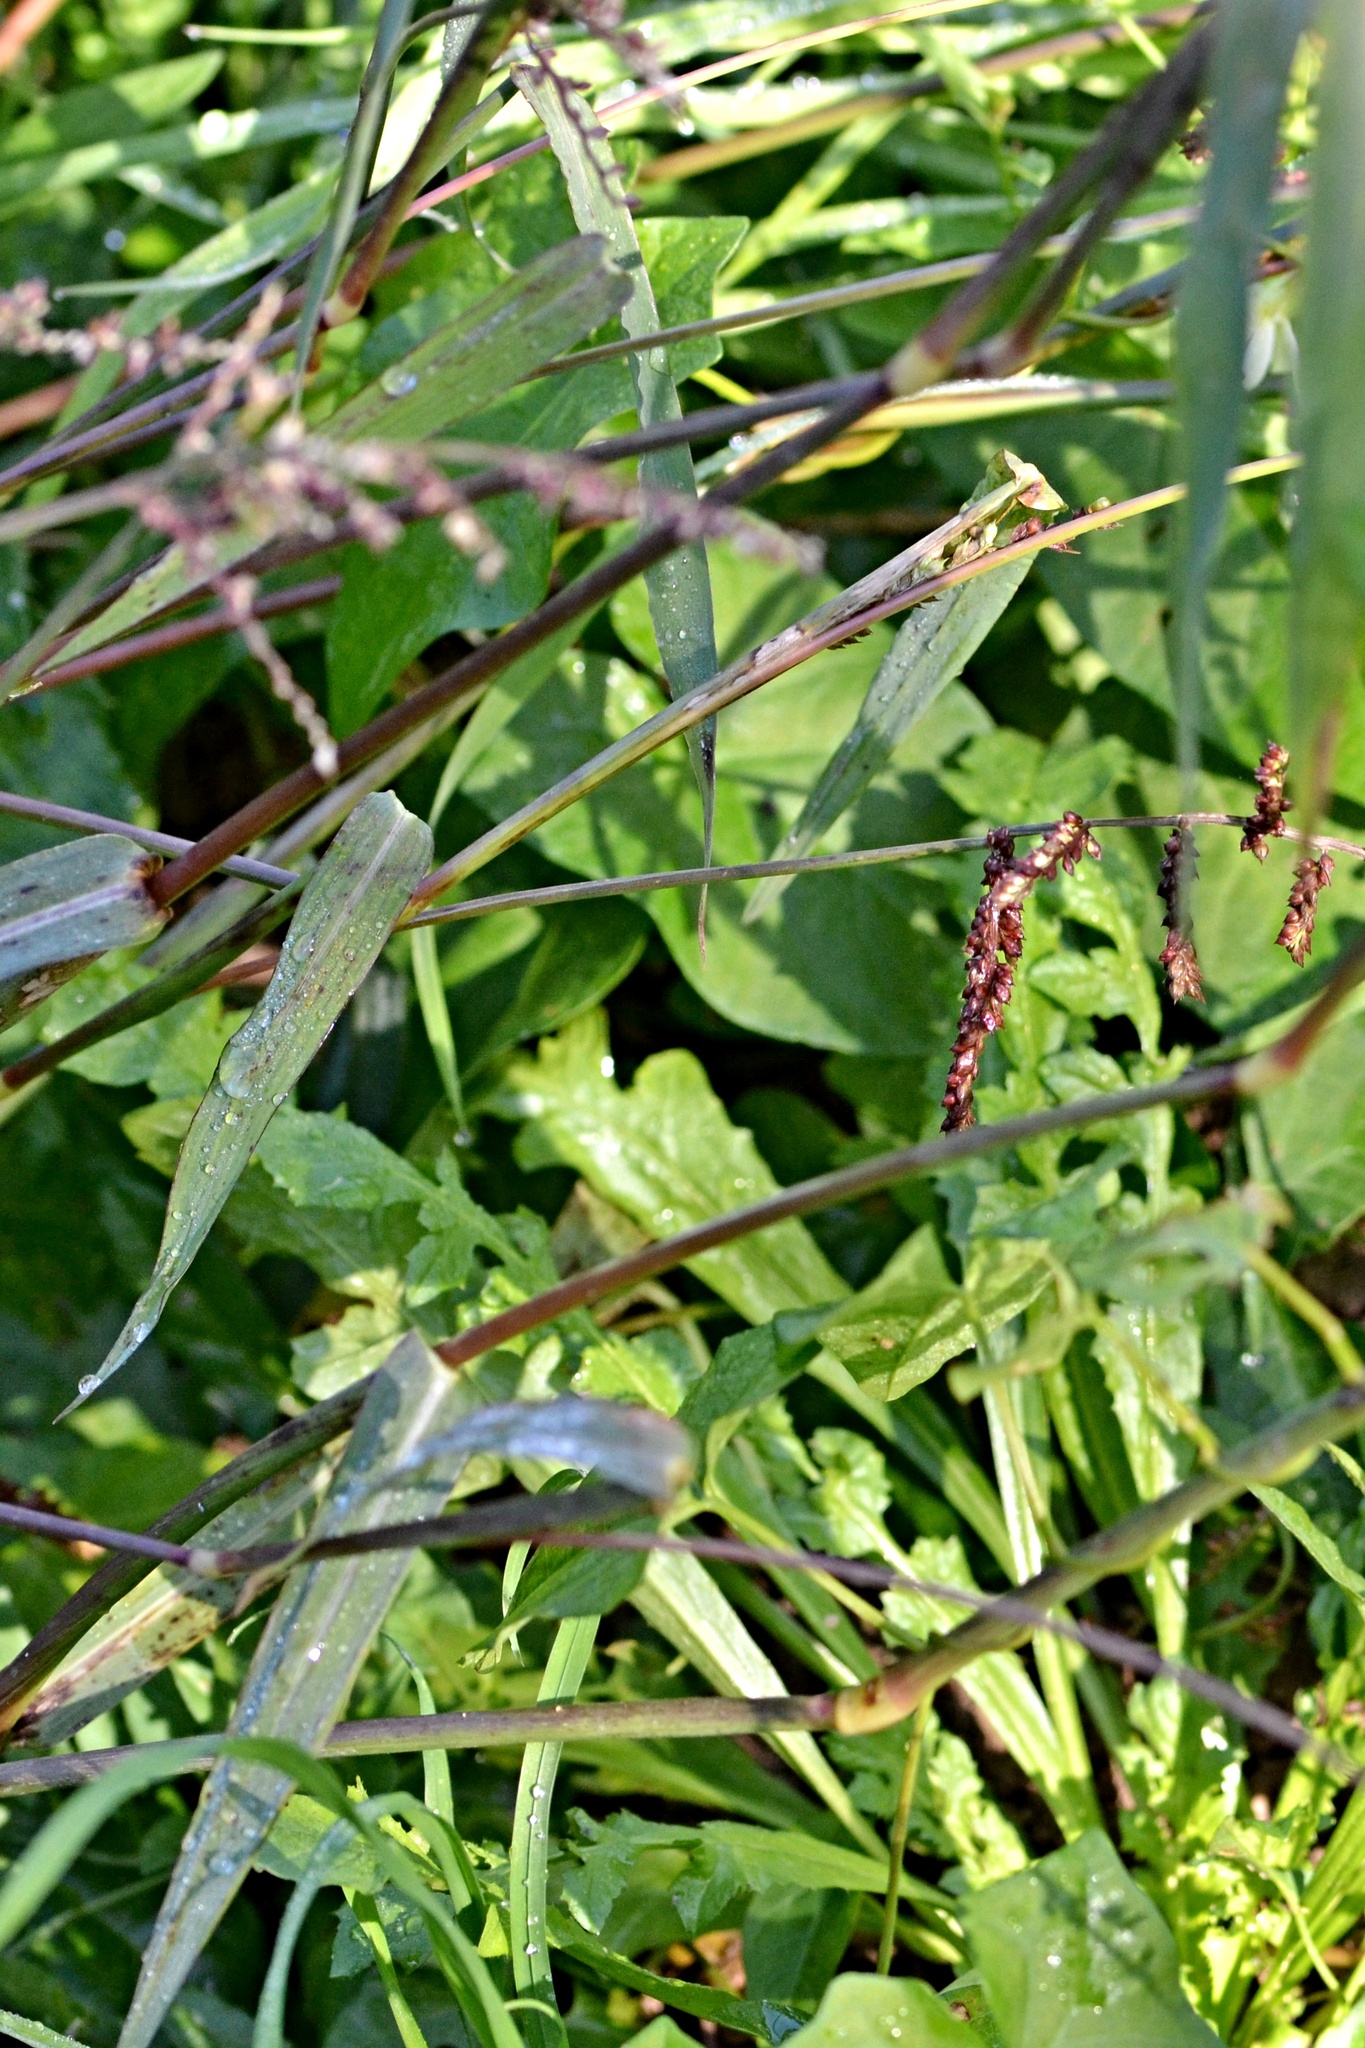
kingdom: Plantae
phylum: Tracheophyta
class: Liliopsida
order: Poales
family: Poaceae
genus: Echinochloa
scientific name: Echinochloa crus-galli
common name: Cockspur
